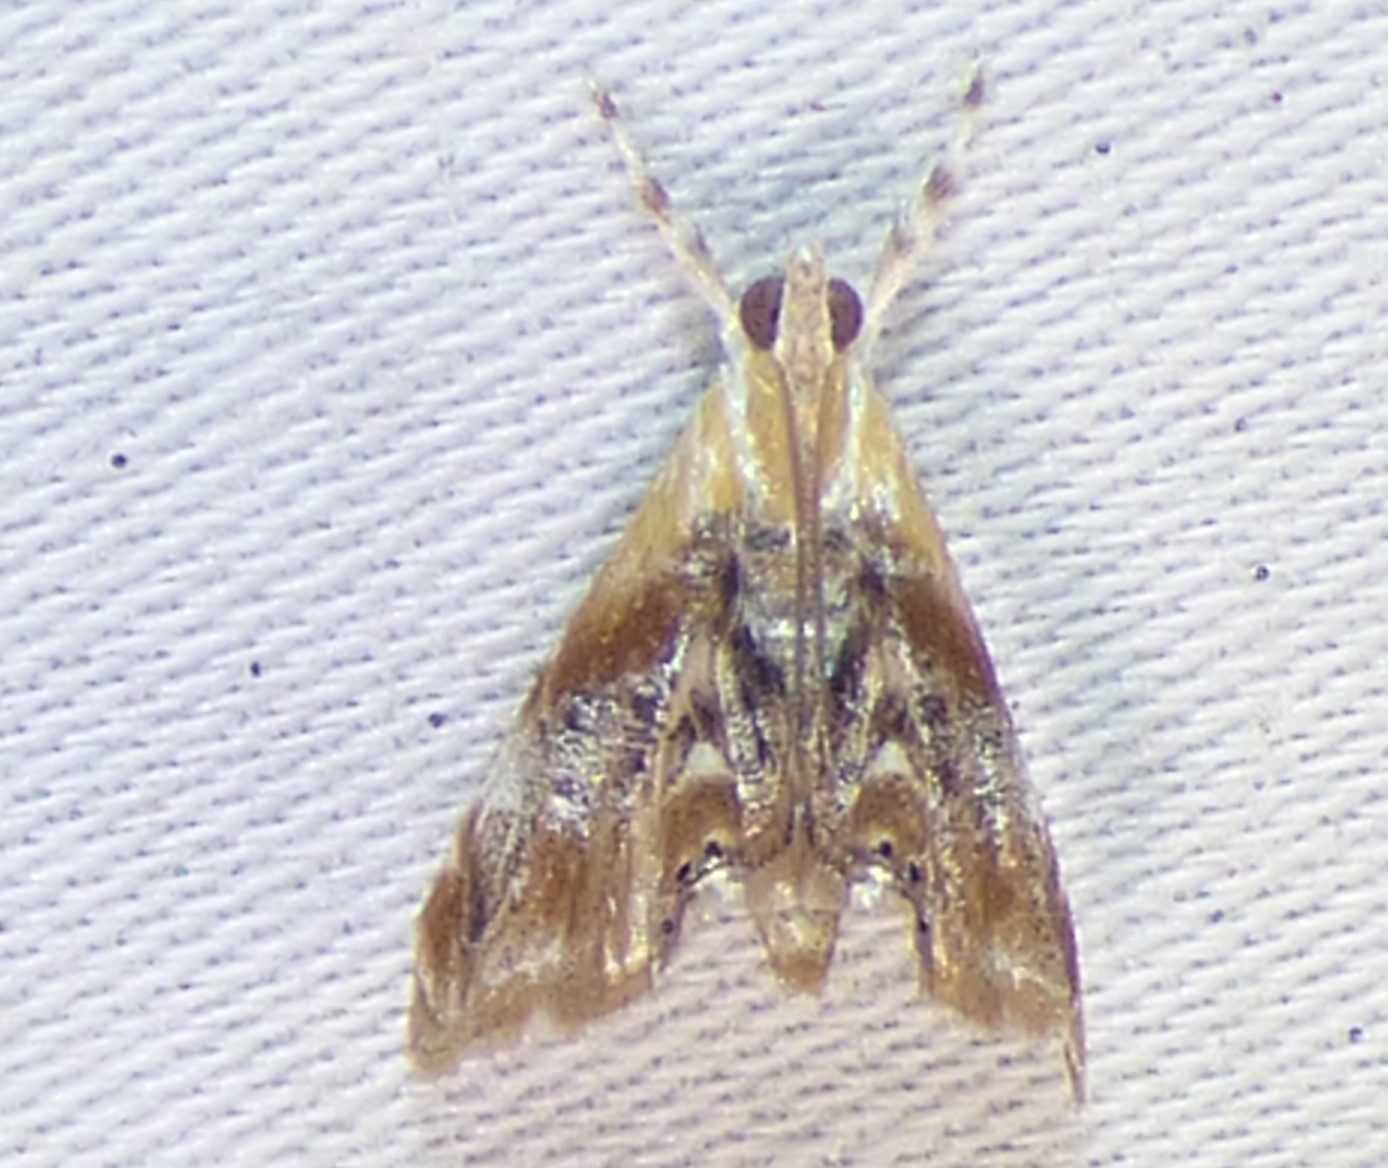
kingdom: Animalia
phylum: Arthropoda
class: Insecta
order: Lepidoptera
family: Crambidae
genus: Dicymolomia
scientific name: Dicymolomia julianalis
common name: Julia's dicymolomia moth
